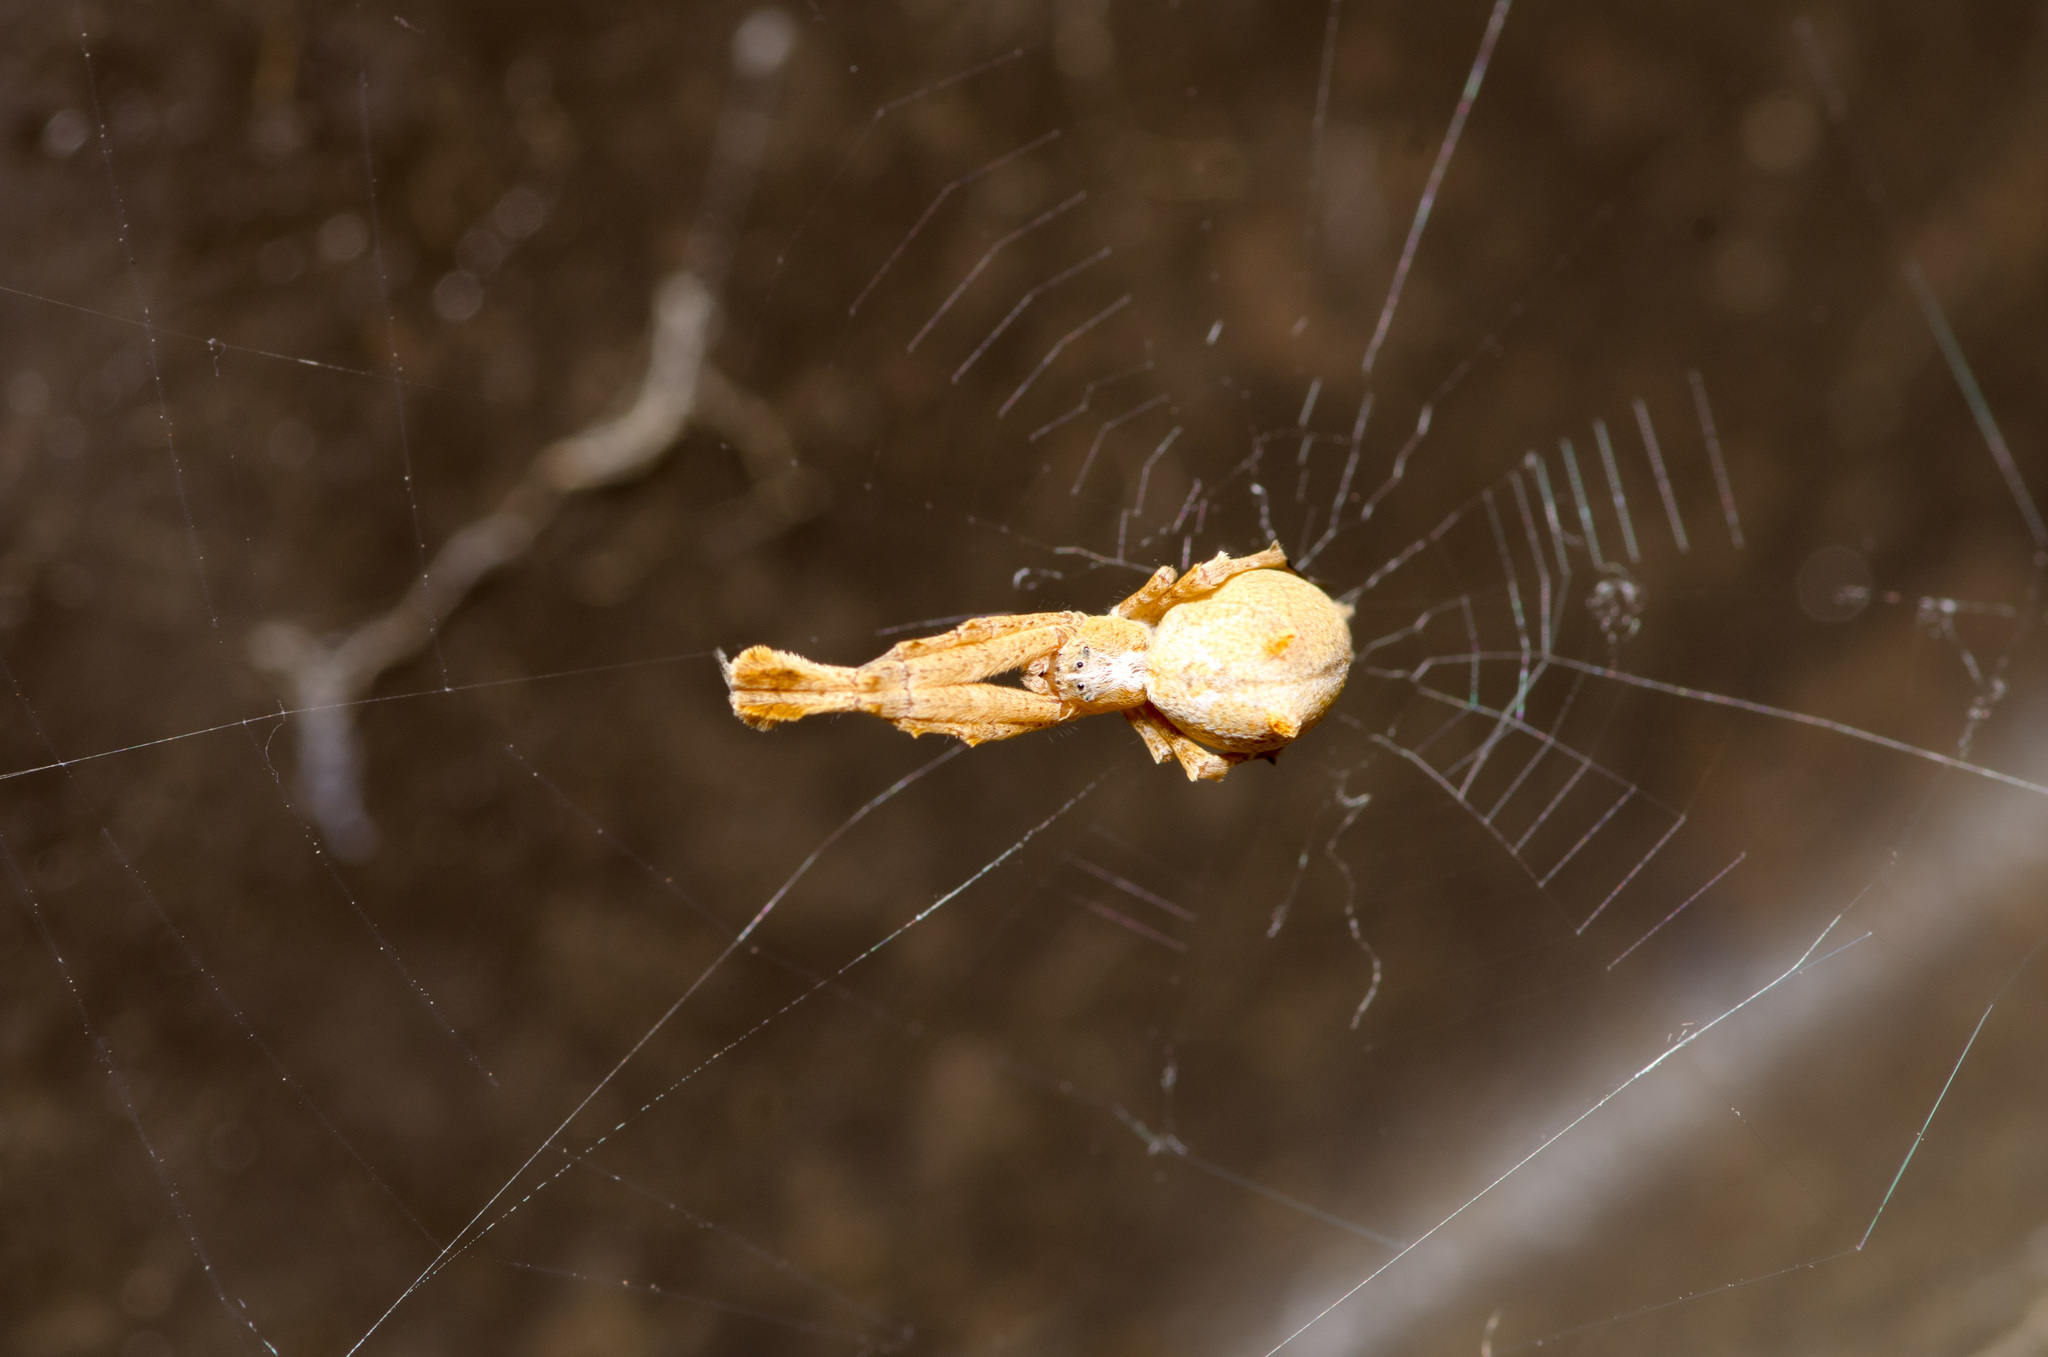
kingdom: Animalia
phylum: Arthropoda
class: Arachnida
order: Araneae
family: Uloboridae
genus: Uloborus
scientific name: Uloborus glomosus
